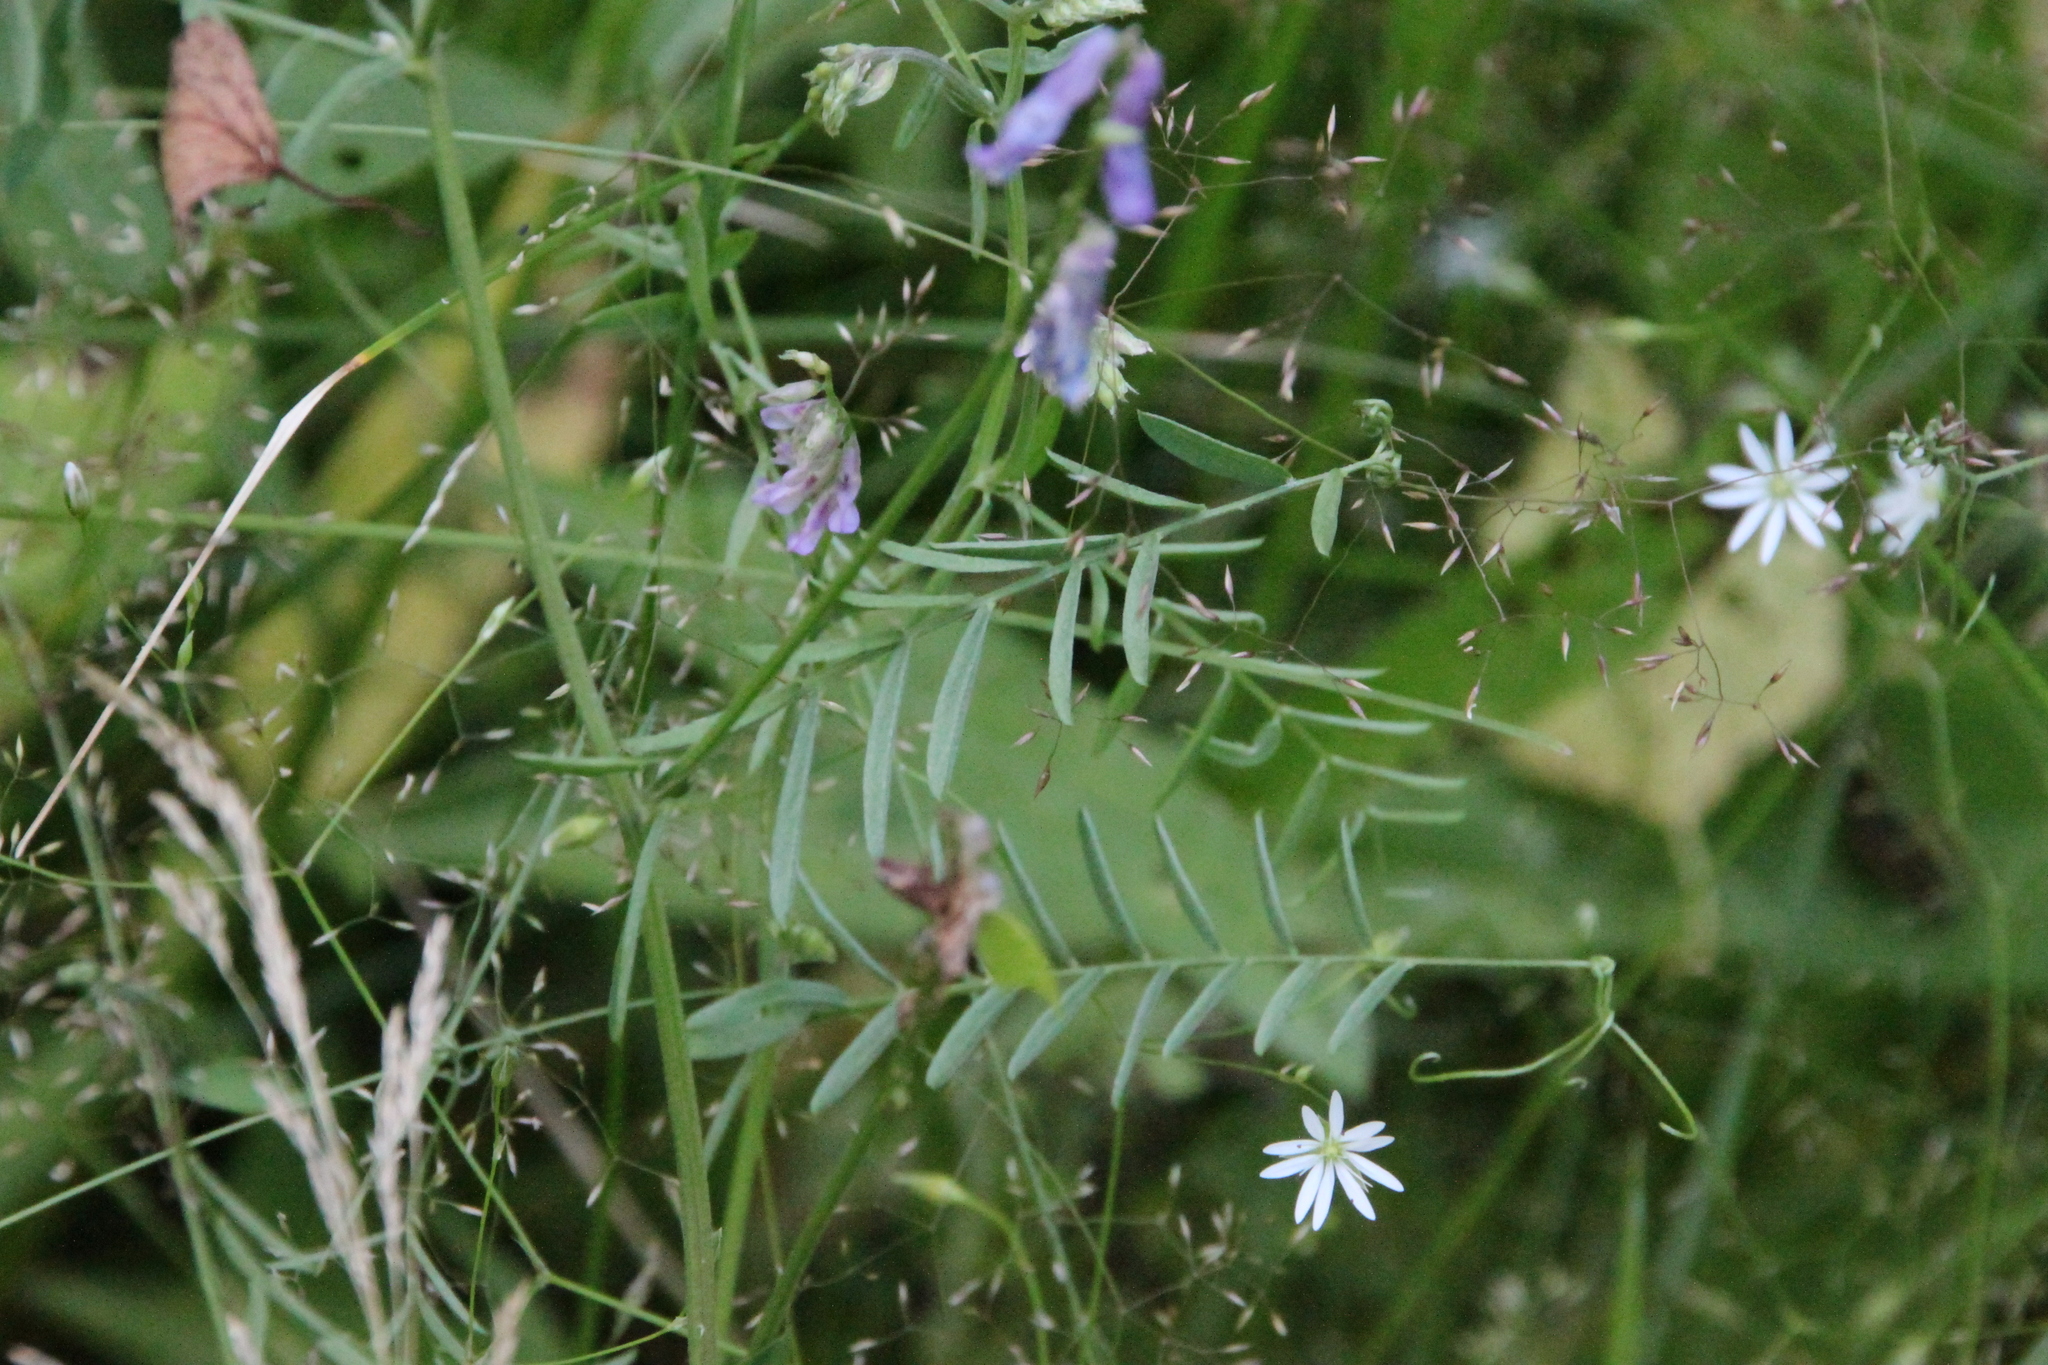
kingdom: Plantae
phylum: Tracheophyta
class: Magnoliopsida
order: Fabales
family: Fabaceae
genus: Vicia
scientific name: Vicia cracca
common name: Bird vetch
